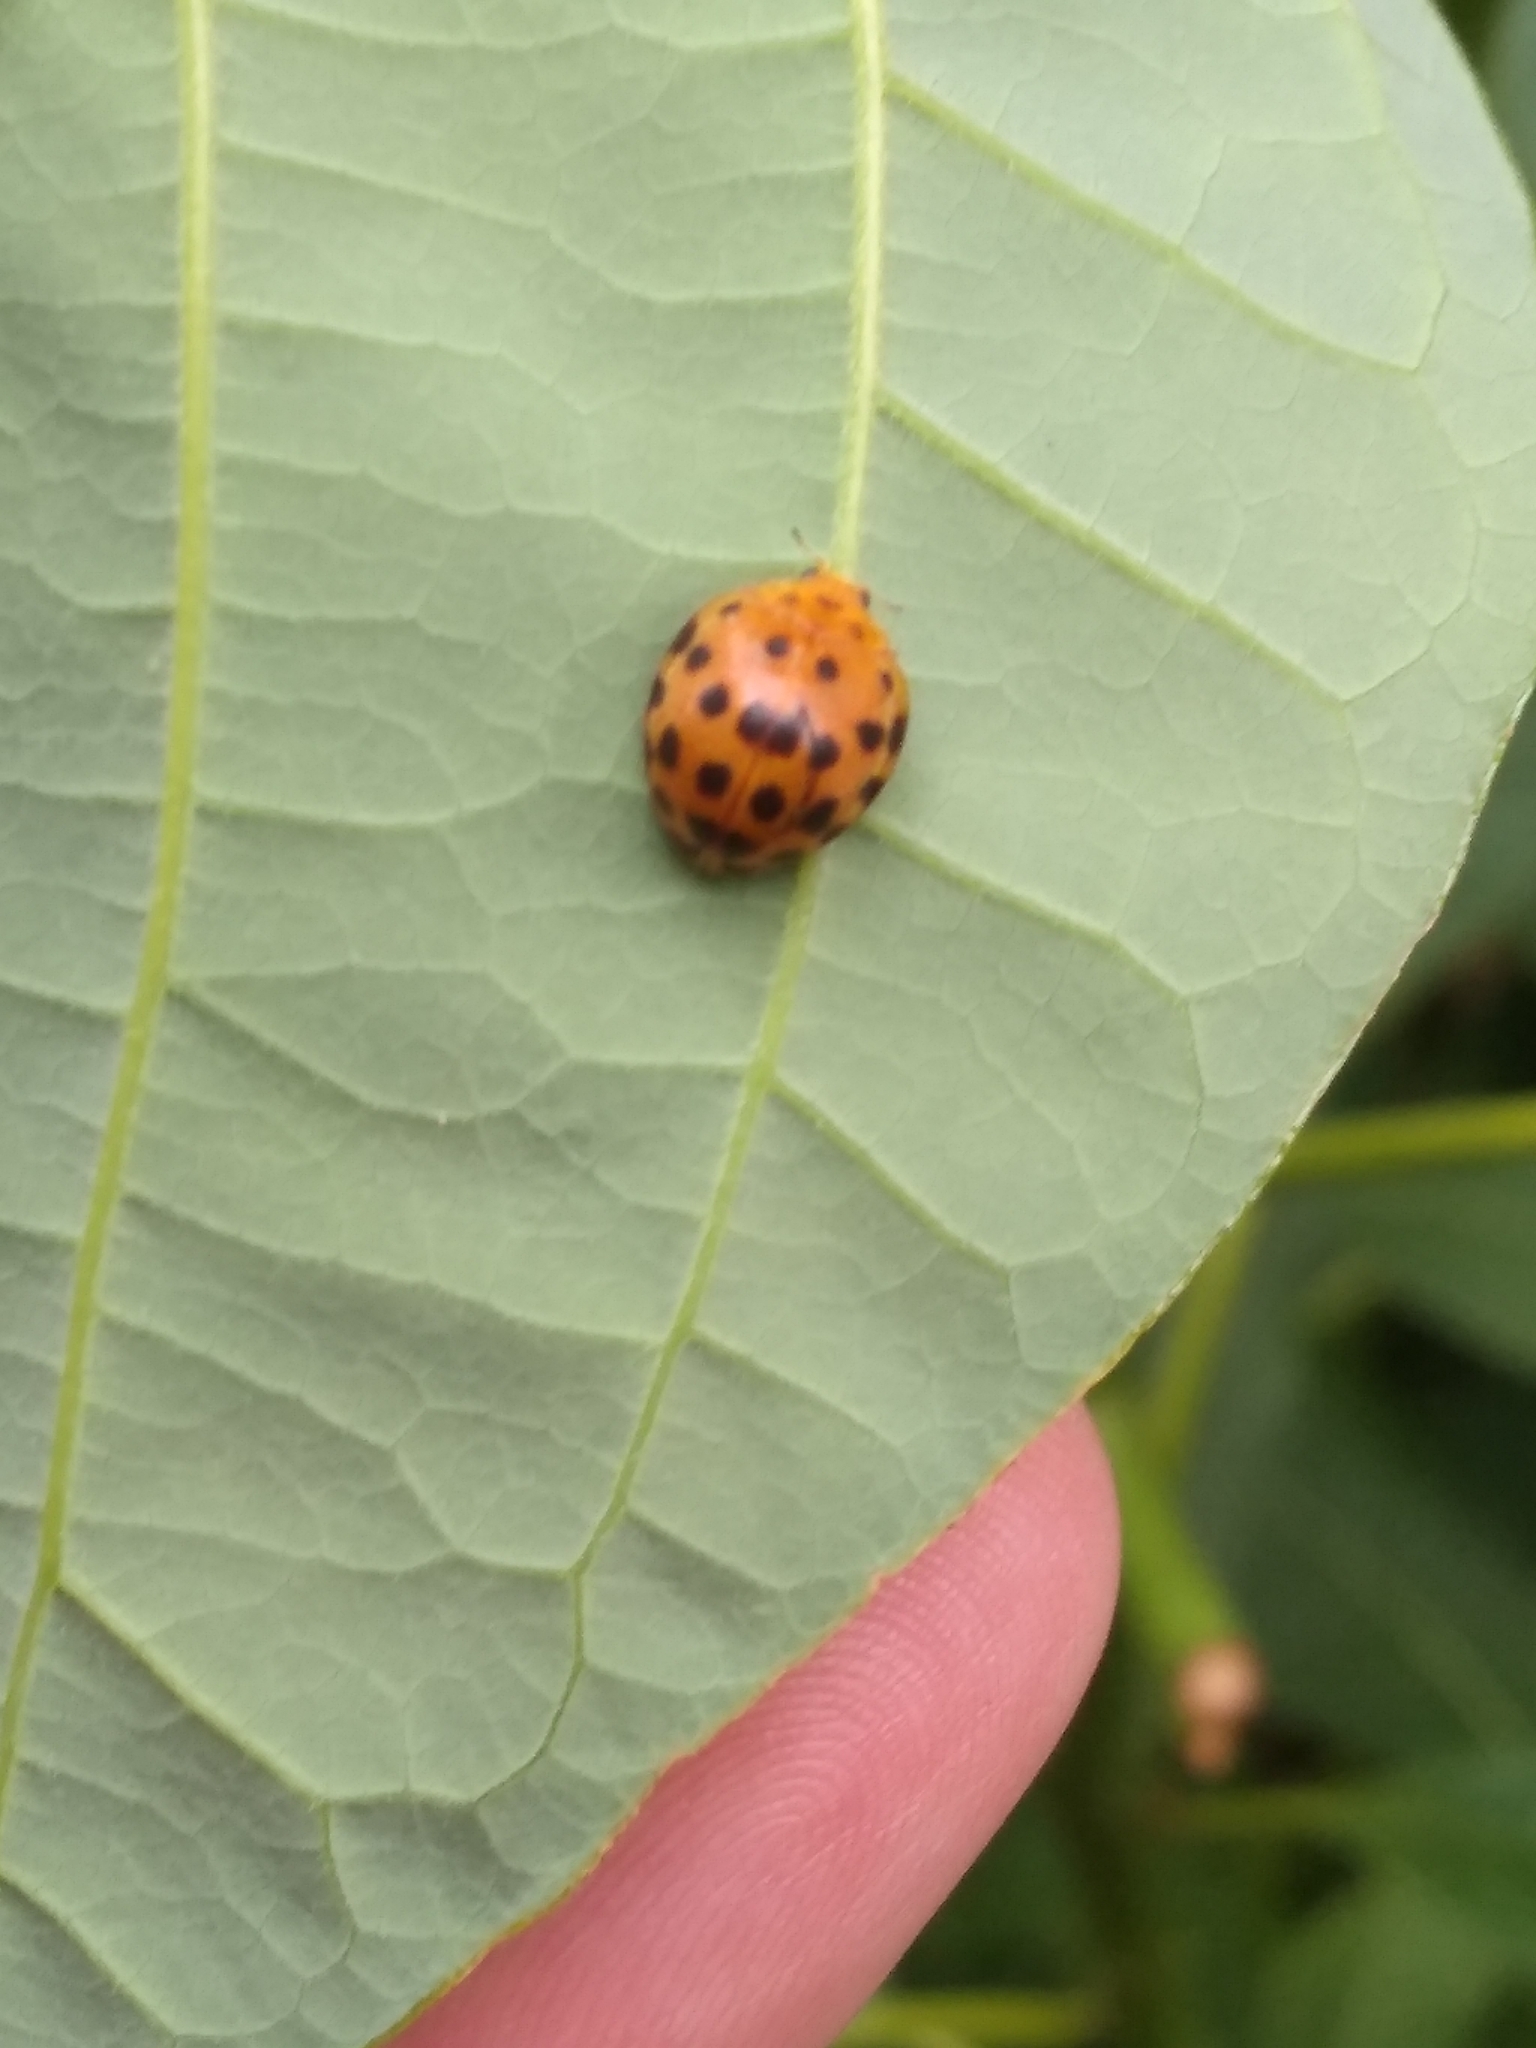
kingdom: Animalia
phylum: Arthropoda
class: Insecta
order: Coleoptera
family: Coccinellidae
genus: Henosepilachna
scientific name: Henosepilachna vigintioctopunctata
